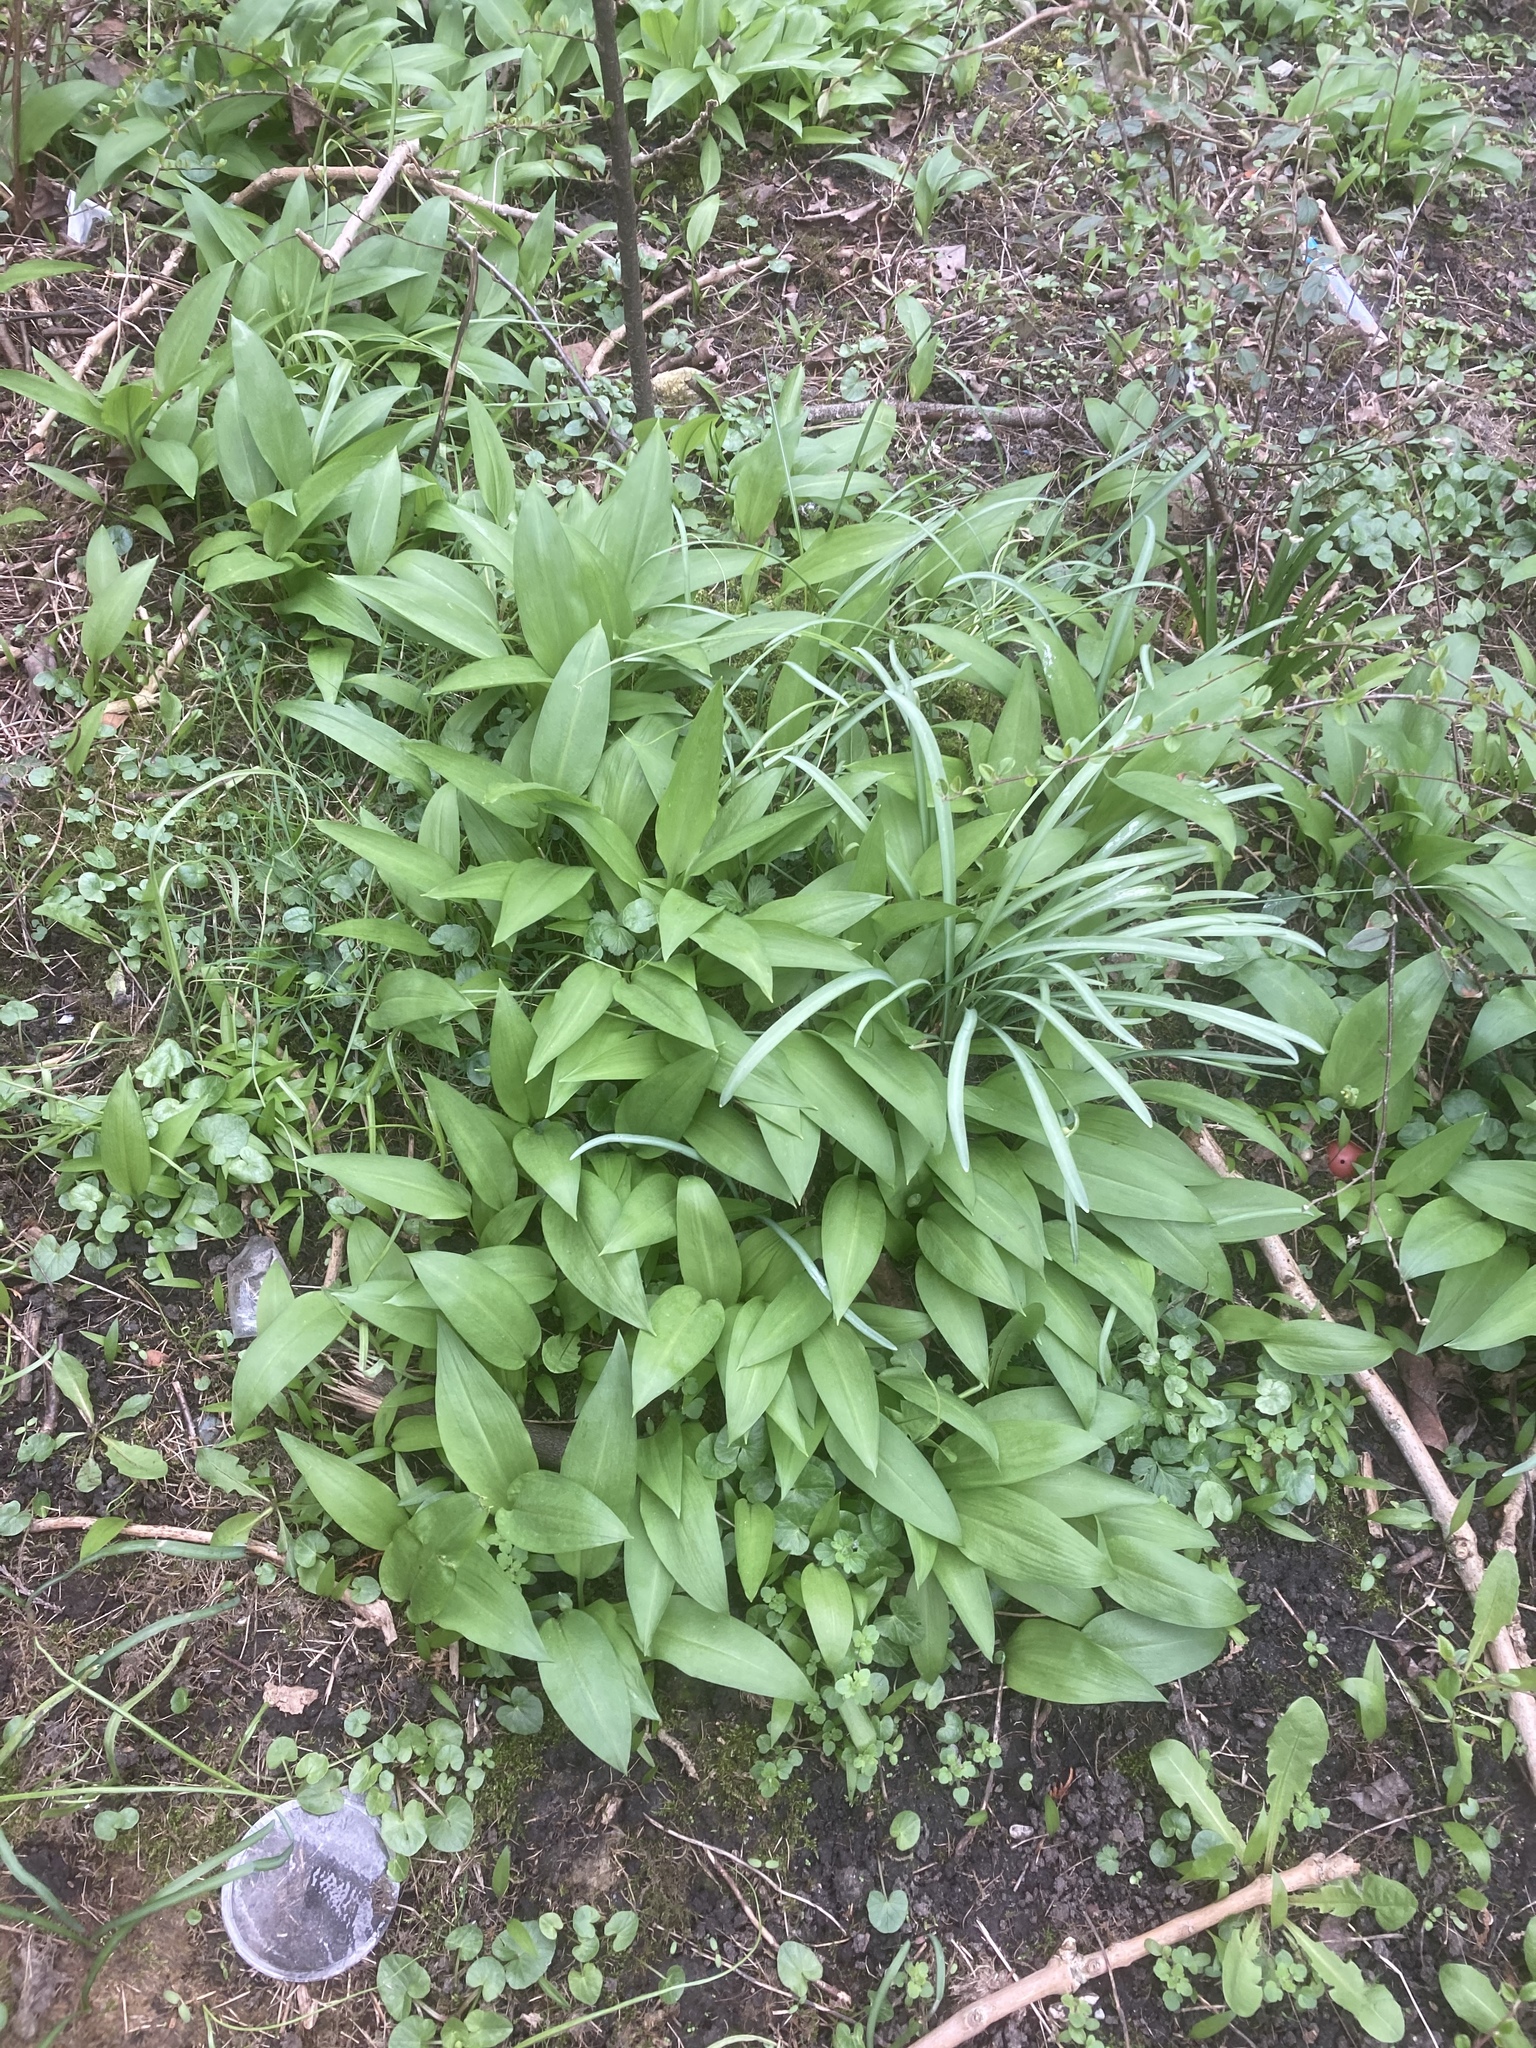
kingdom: Plantae
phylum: Tracheophyta
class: Liliopsida
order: Asparagales
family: Amaryllidaceae
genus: Allium
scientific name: Allium ursinum
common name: Ramsons
